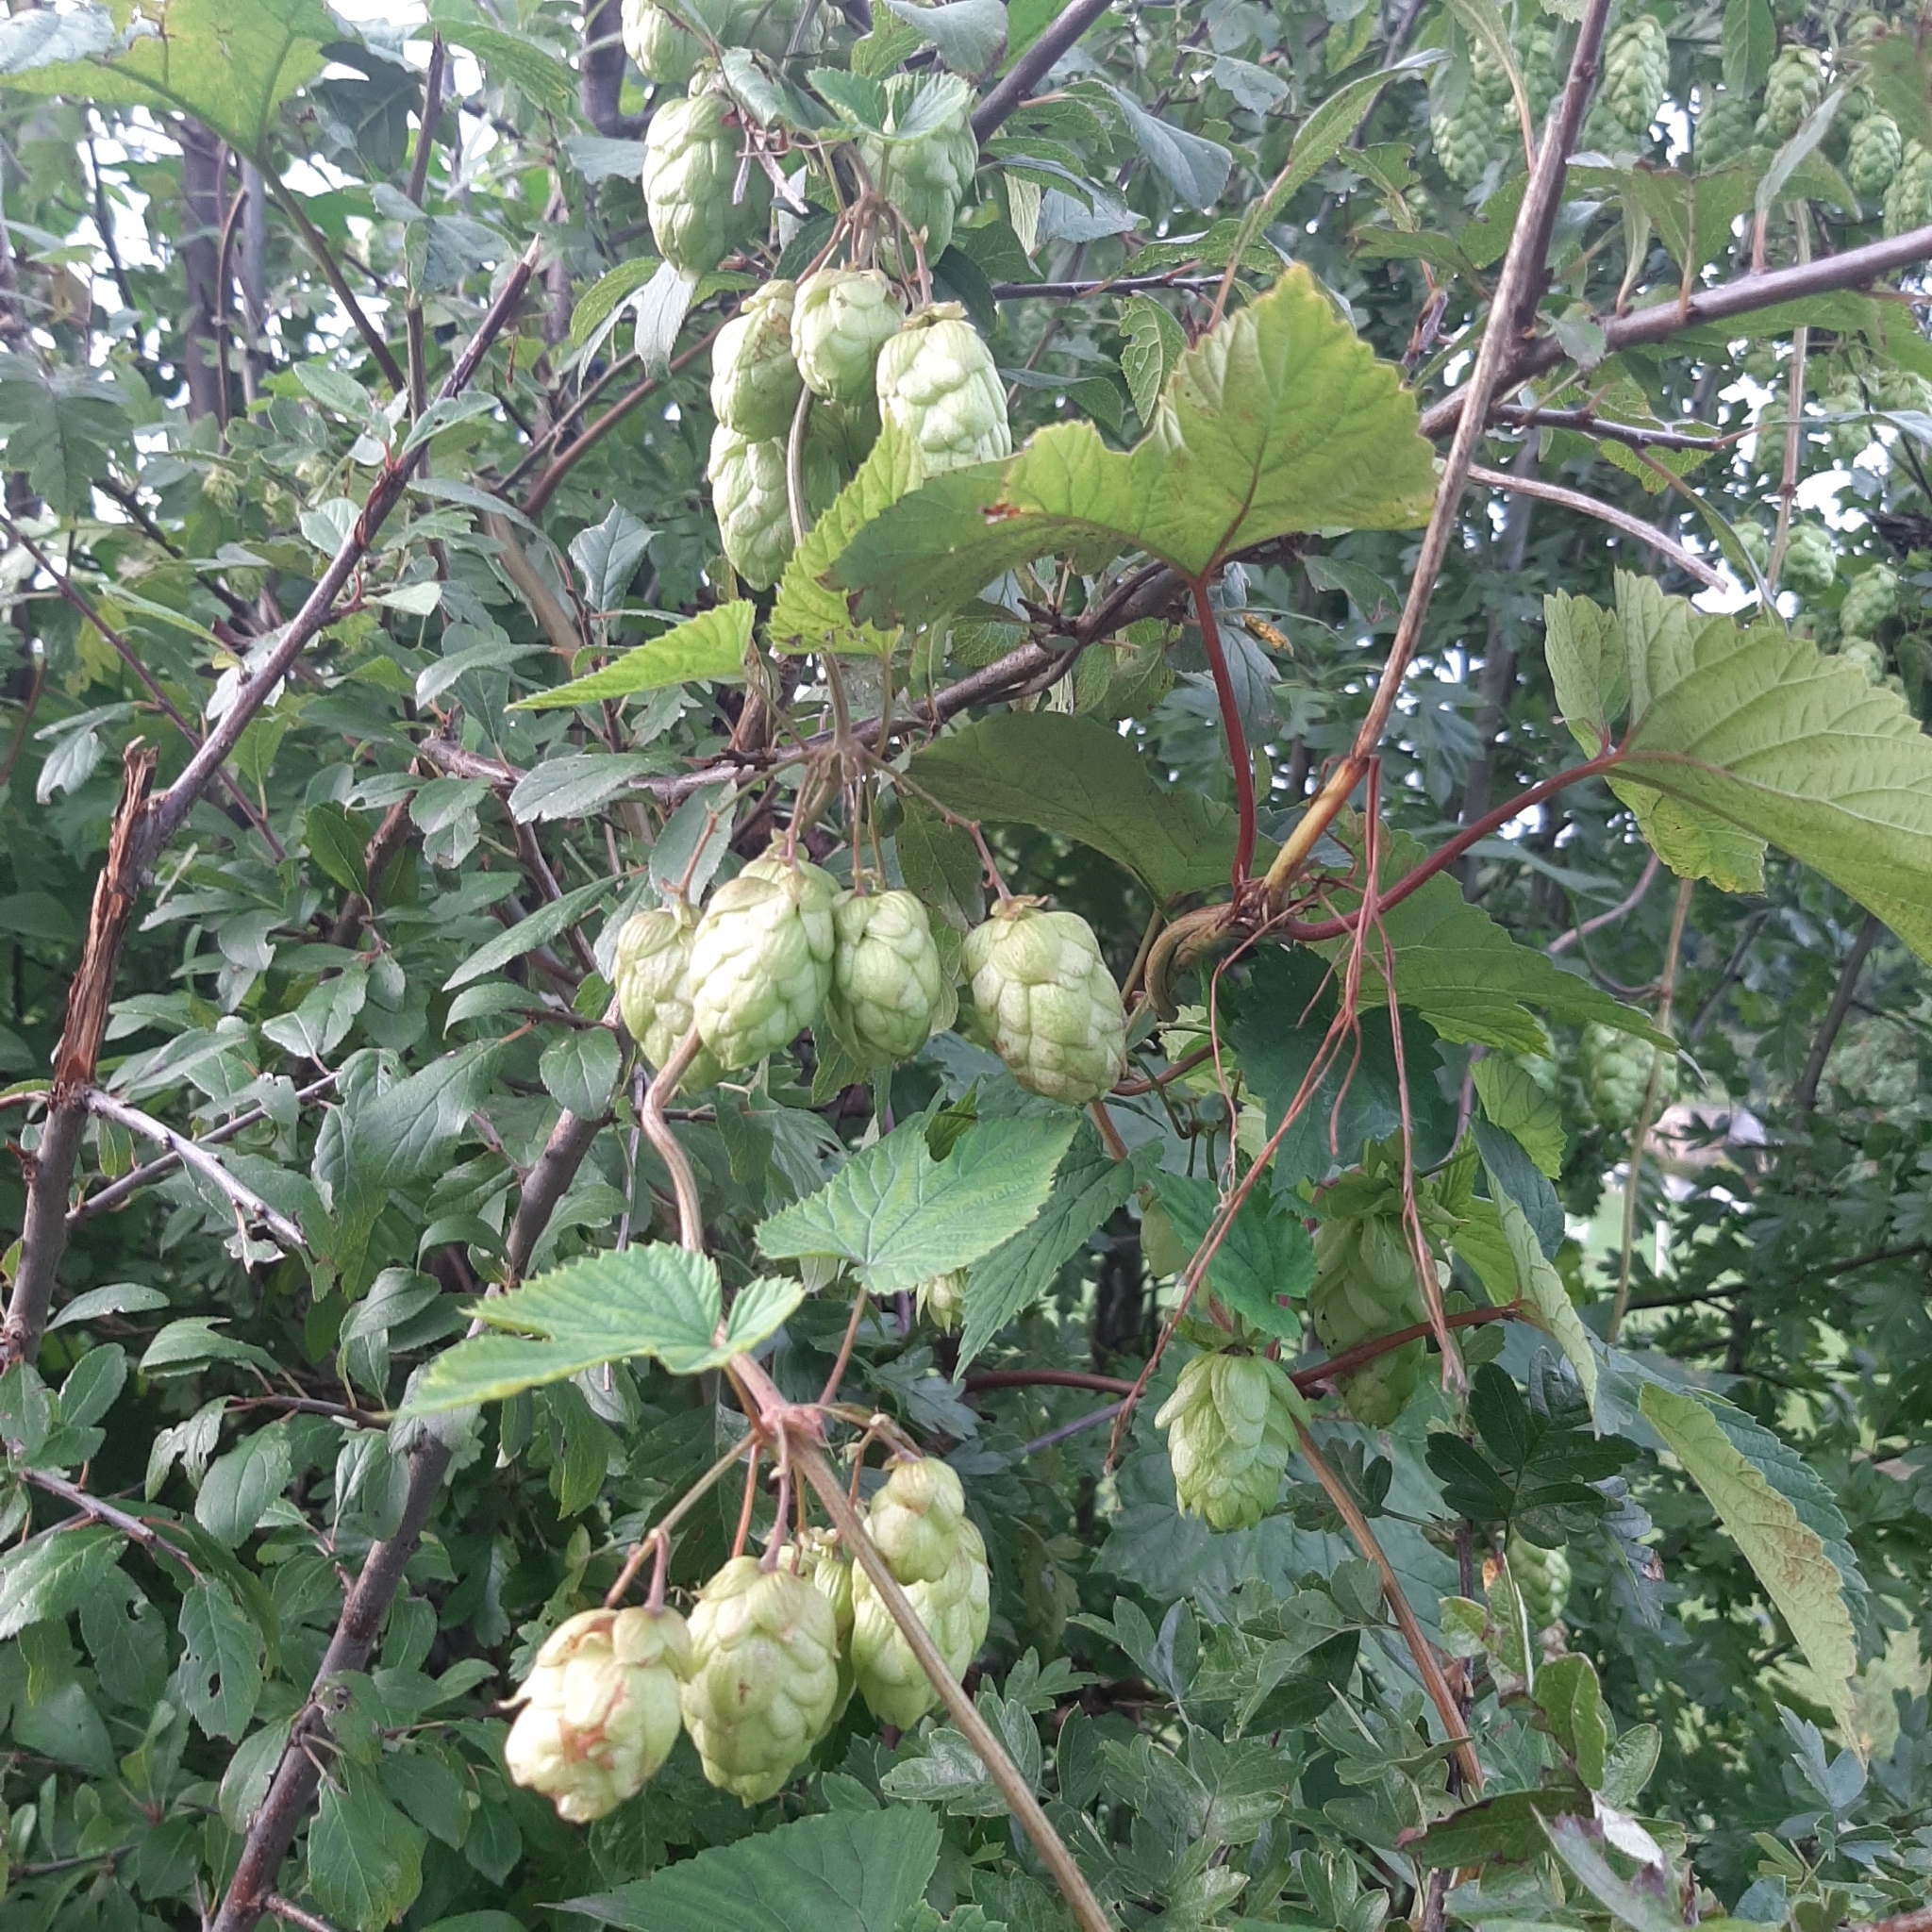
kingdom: Plantae
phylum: Tracheophyta
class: Magnoliopsida
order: Rosales
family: Cannabaceae
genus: Humulus
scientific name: Humulus lupulus
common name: Hop
